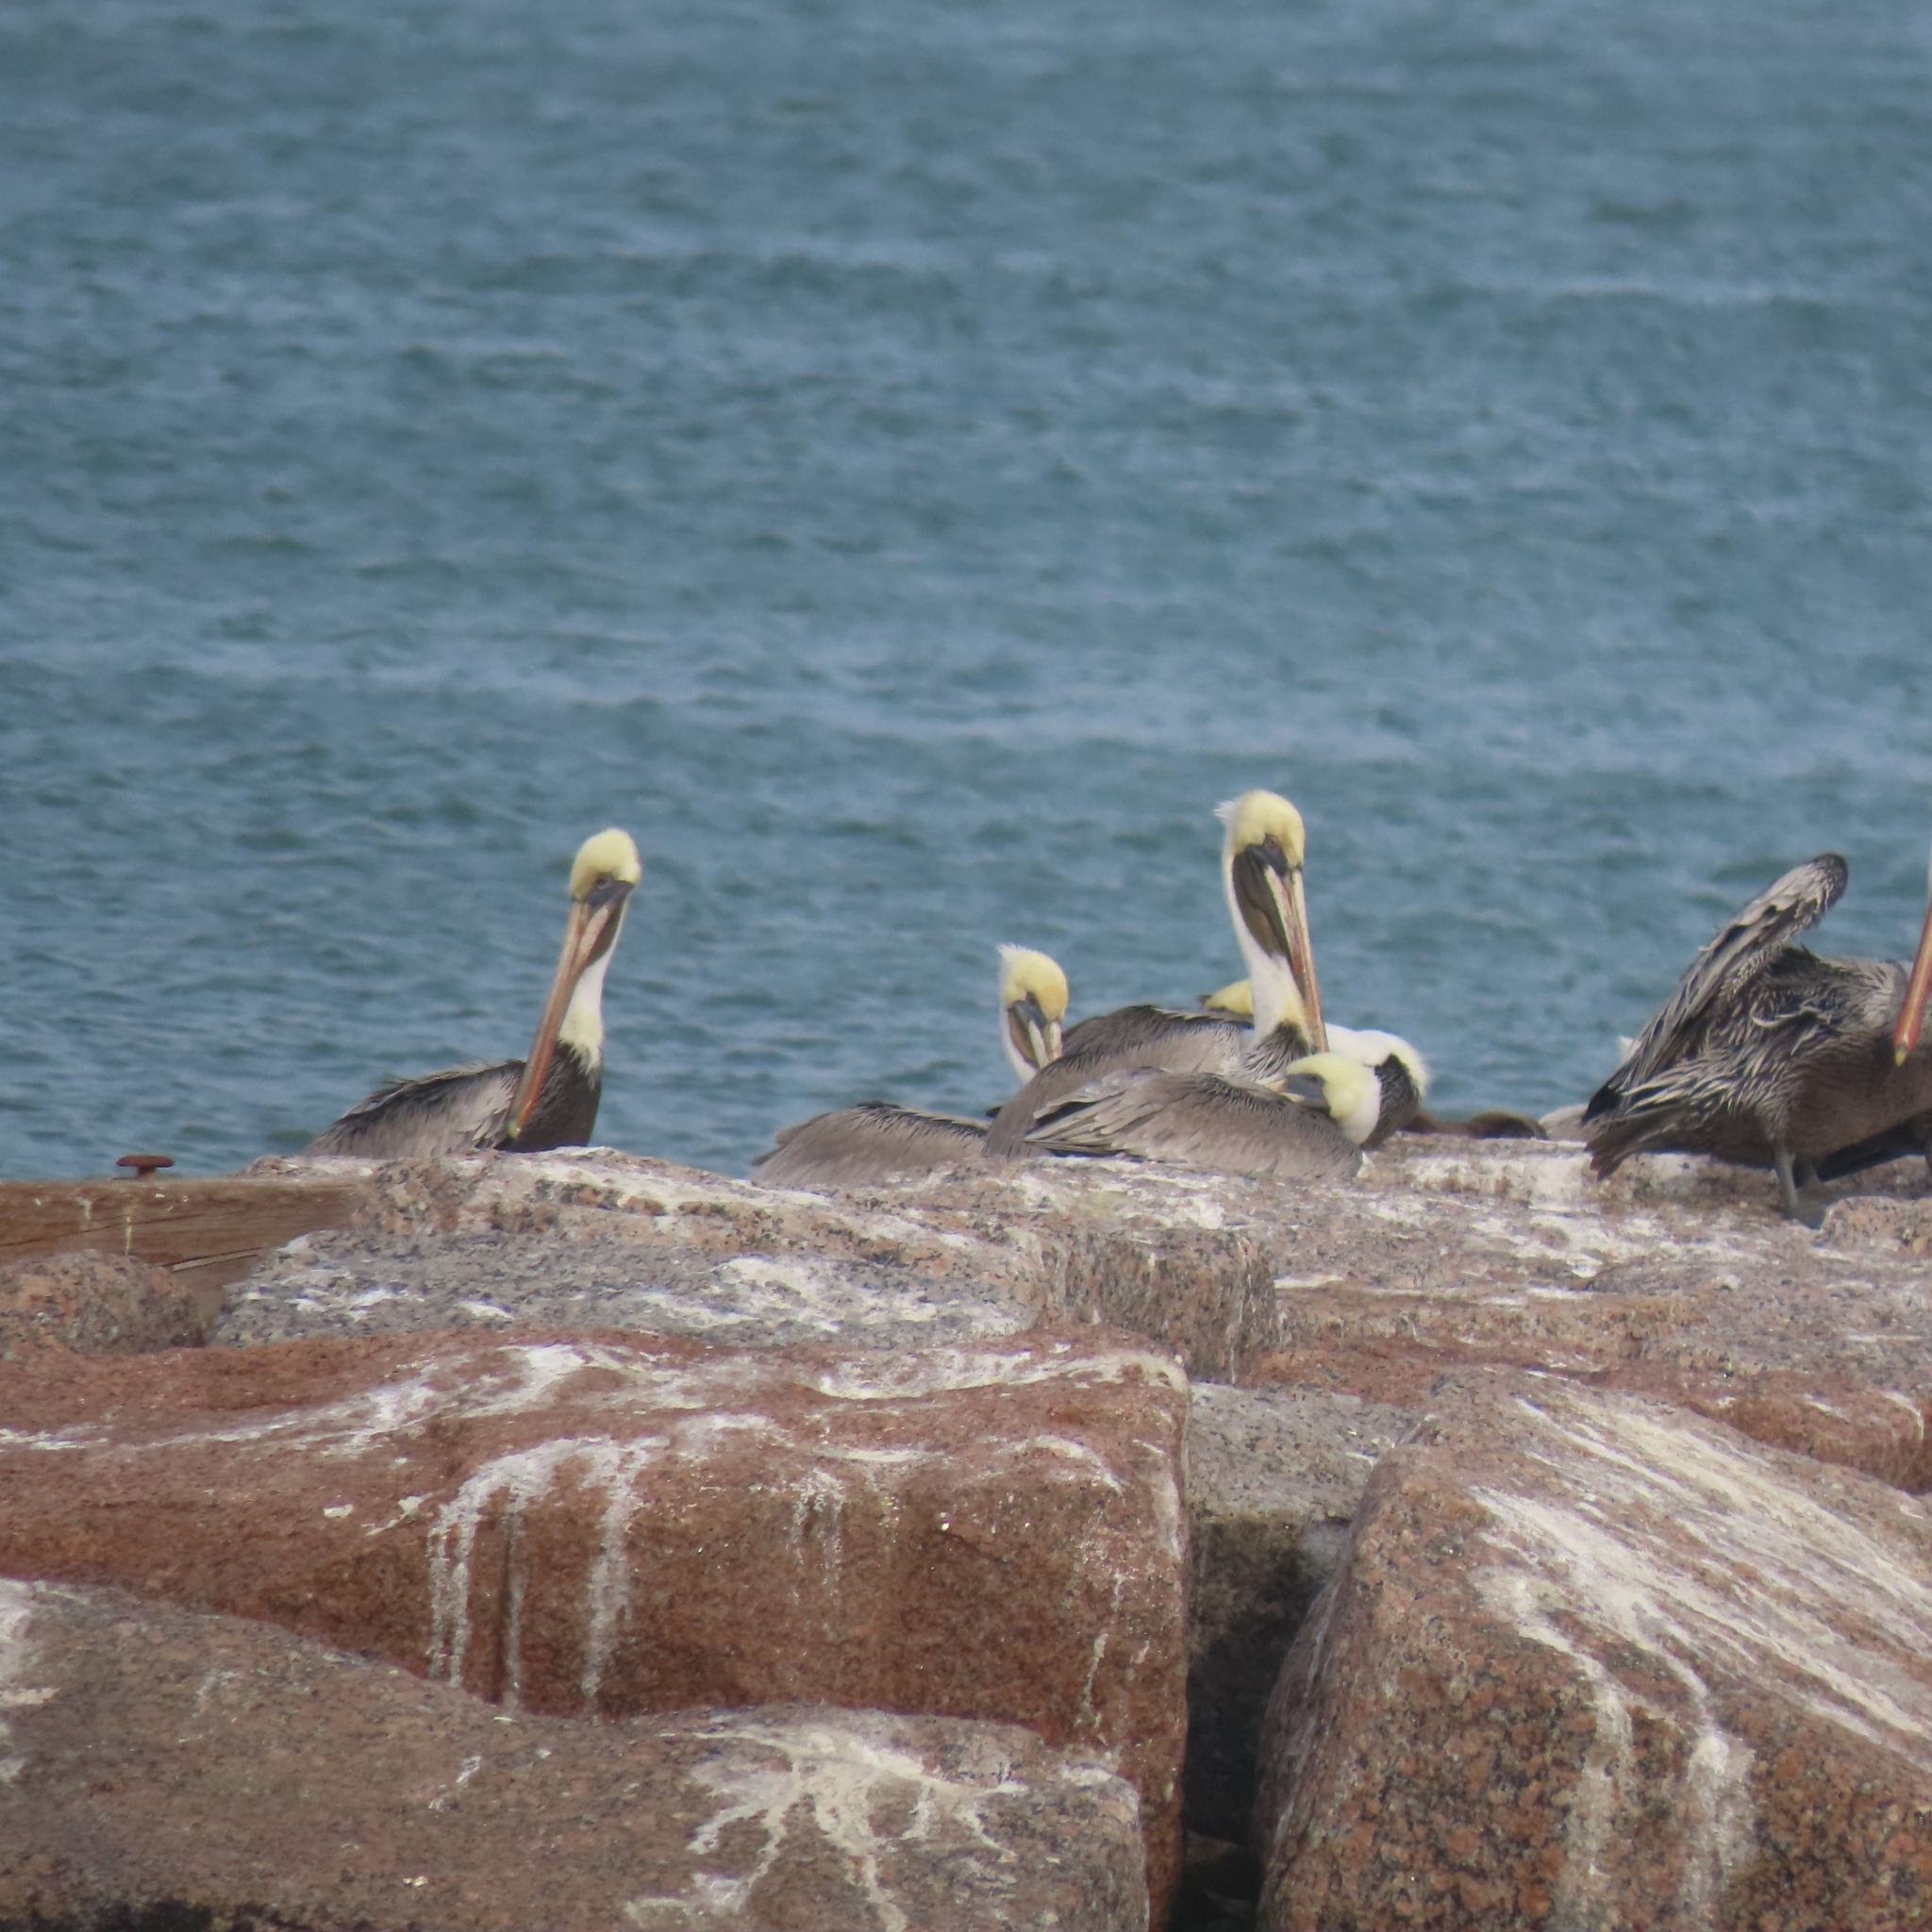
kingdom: Animalia
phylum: Chordata
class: Aves
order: Pelecaniformes
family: Pelecanidae
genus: Pelecanus
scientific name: Pelecanus occidentalis
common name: Brown pelican
